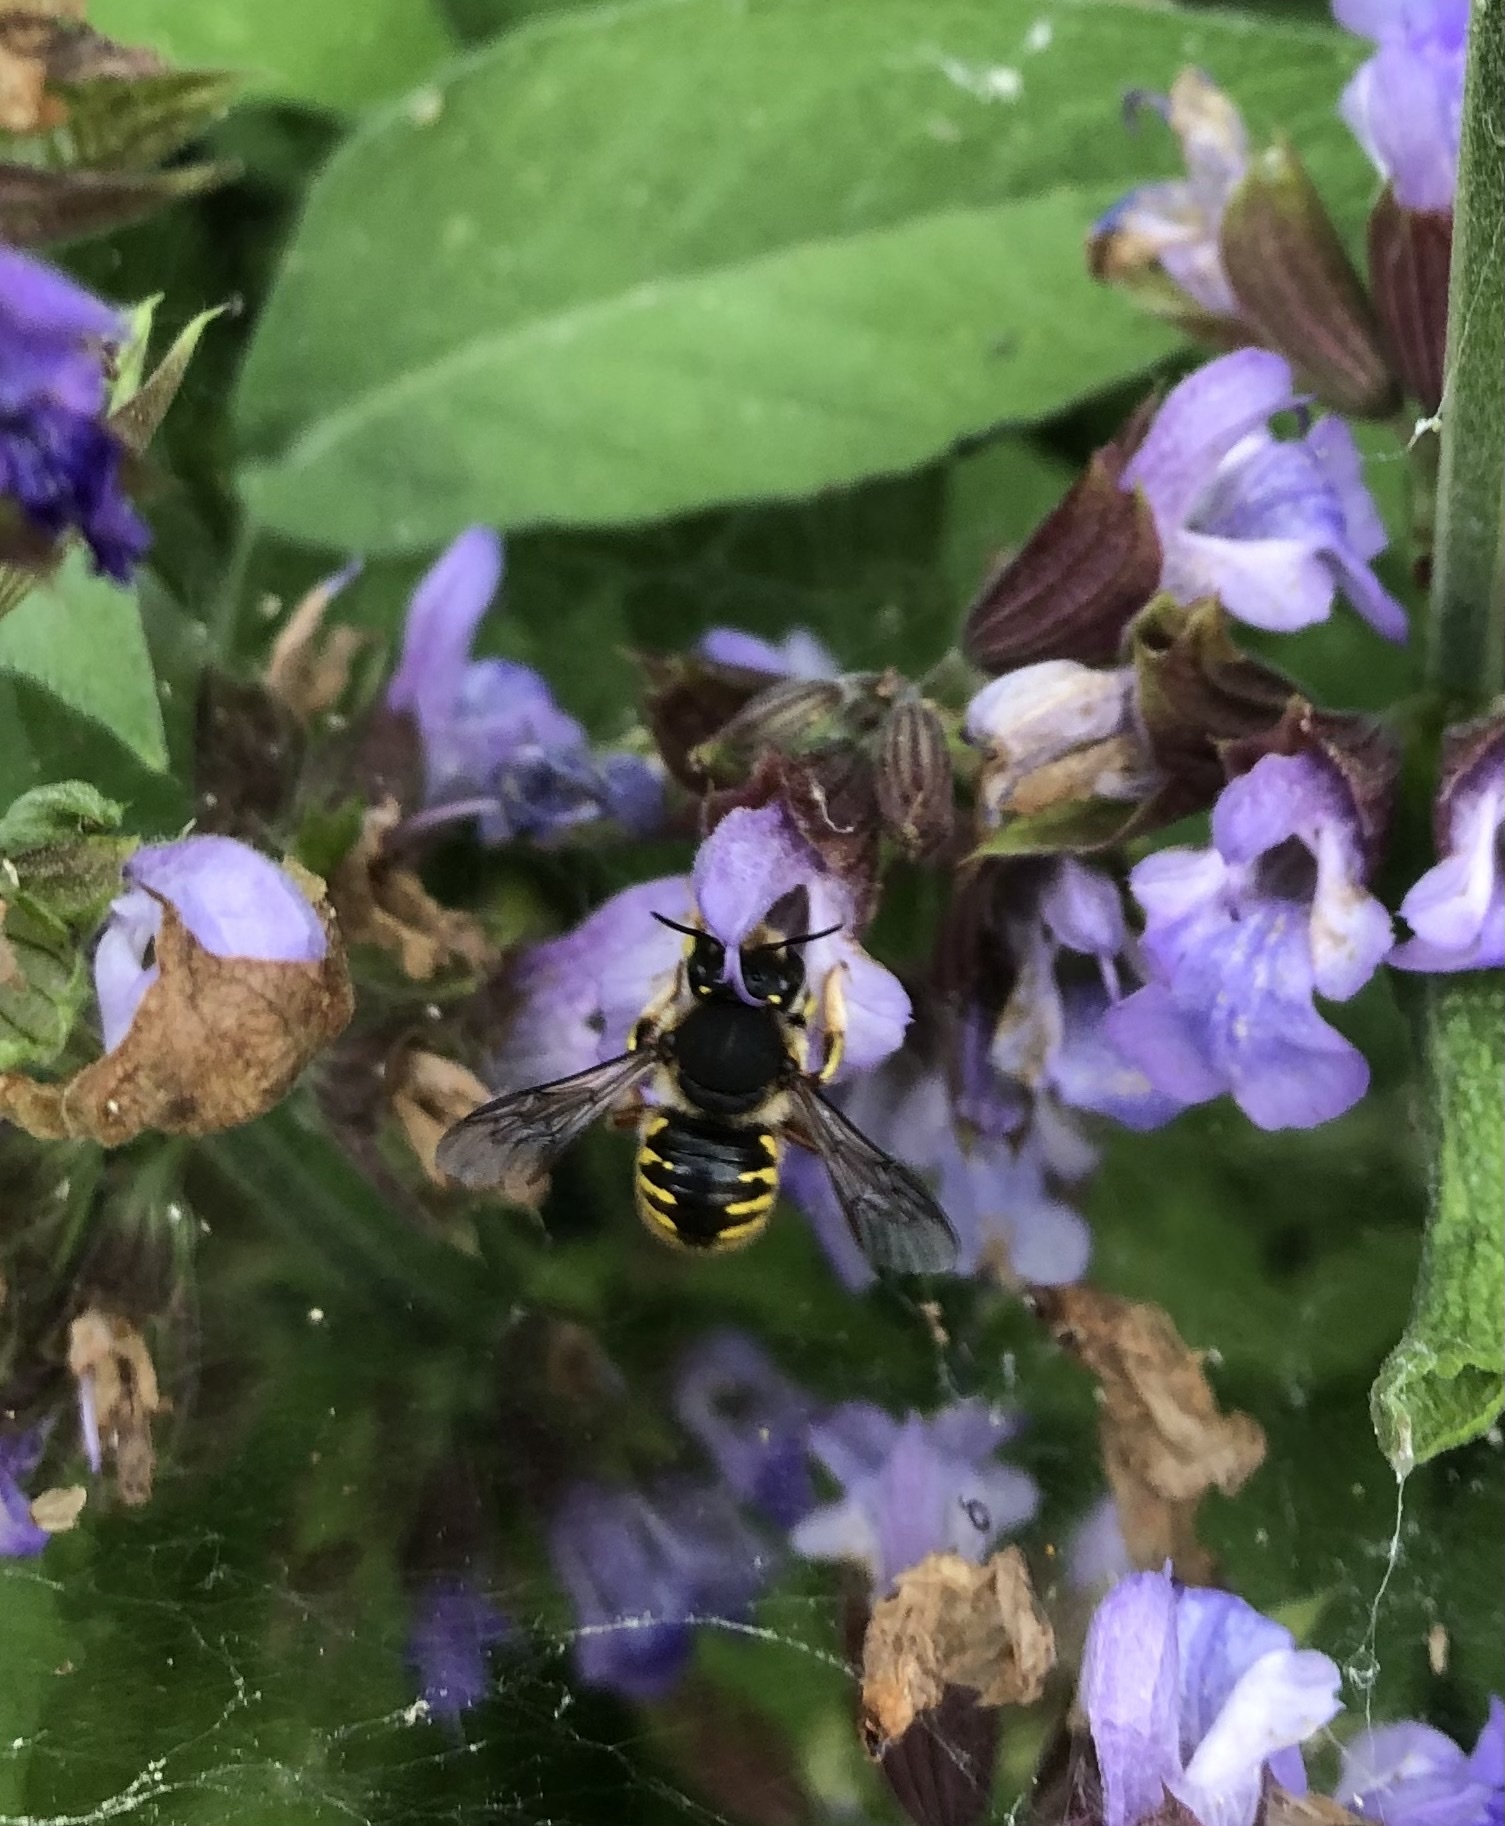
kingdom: Animalia
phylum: Arthropoda
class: Insecta
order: Hymenoptera
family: Megachilidae
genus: Anthidium
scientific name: Anthidium manicatum
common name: Wool carder bee
